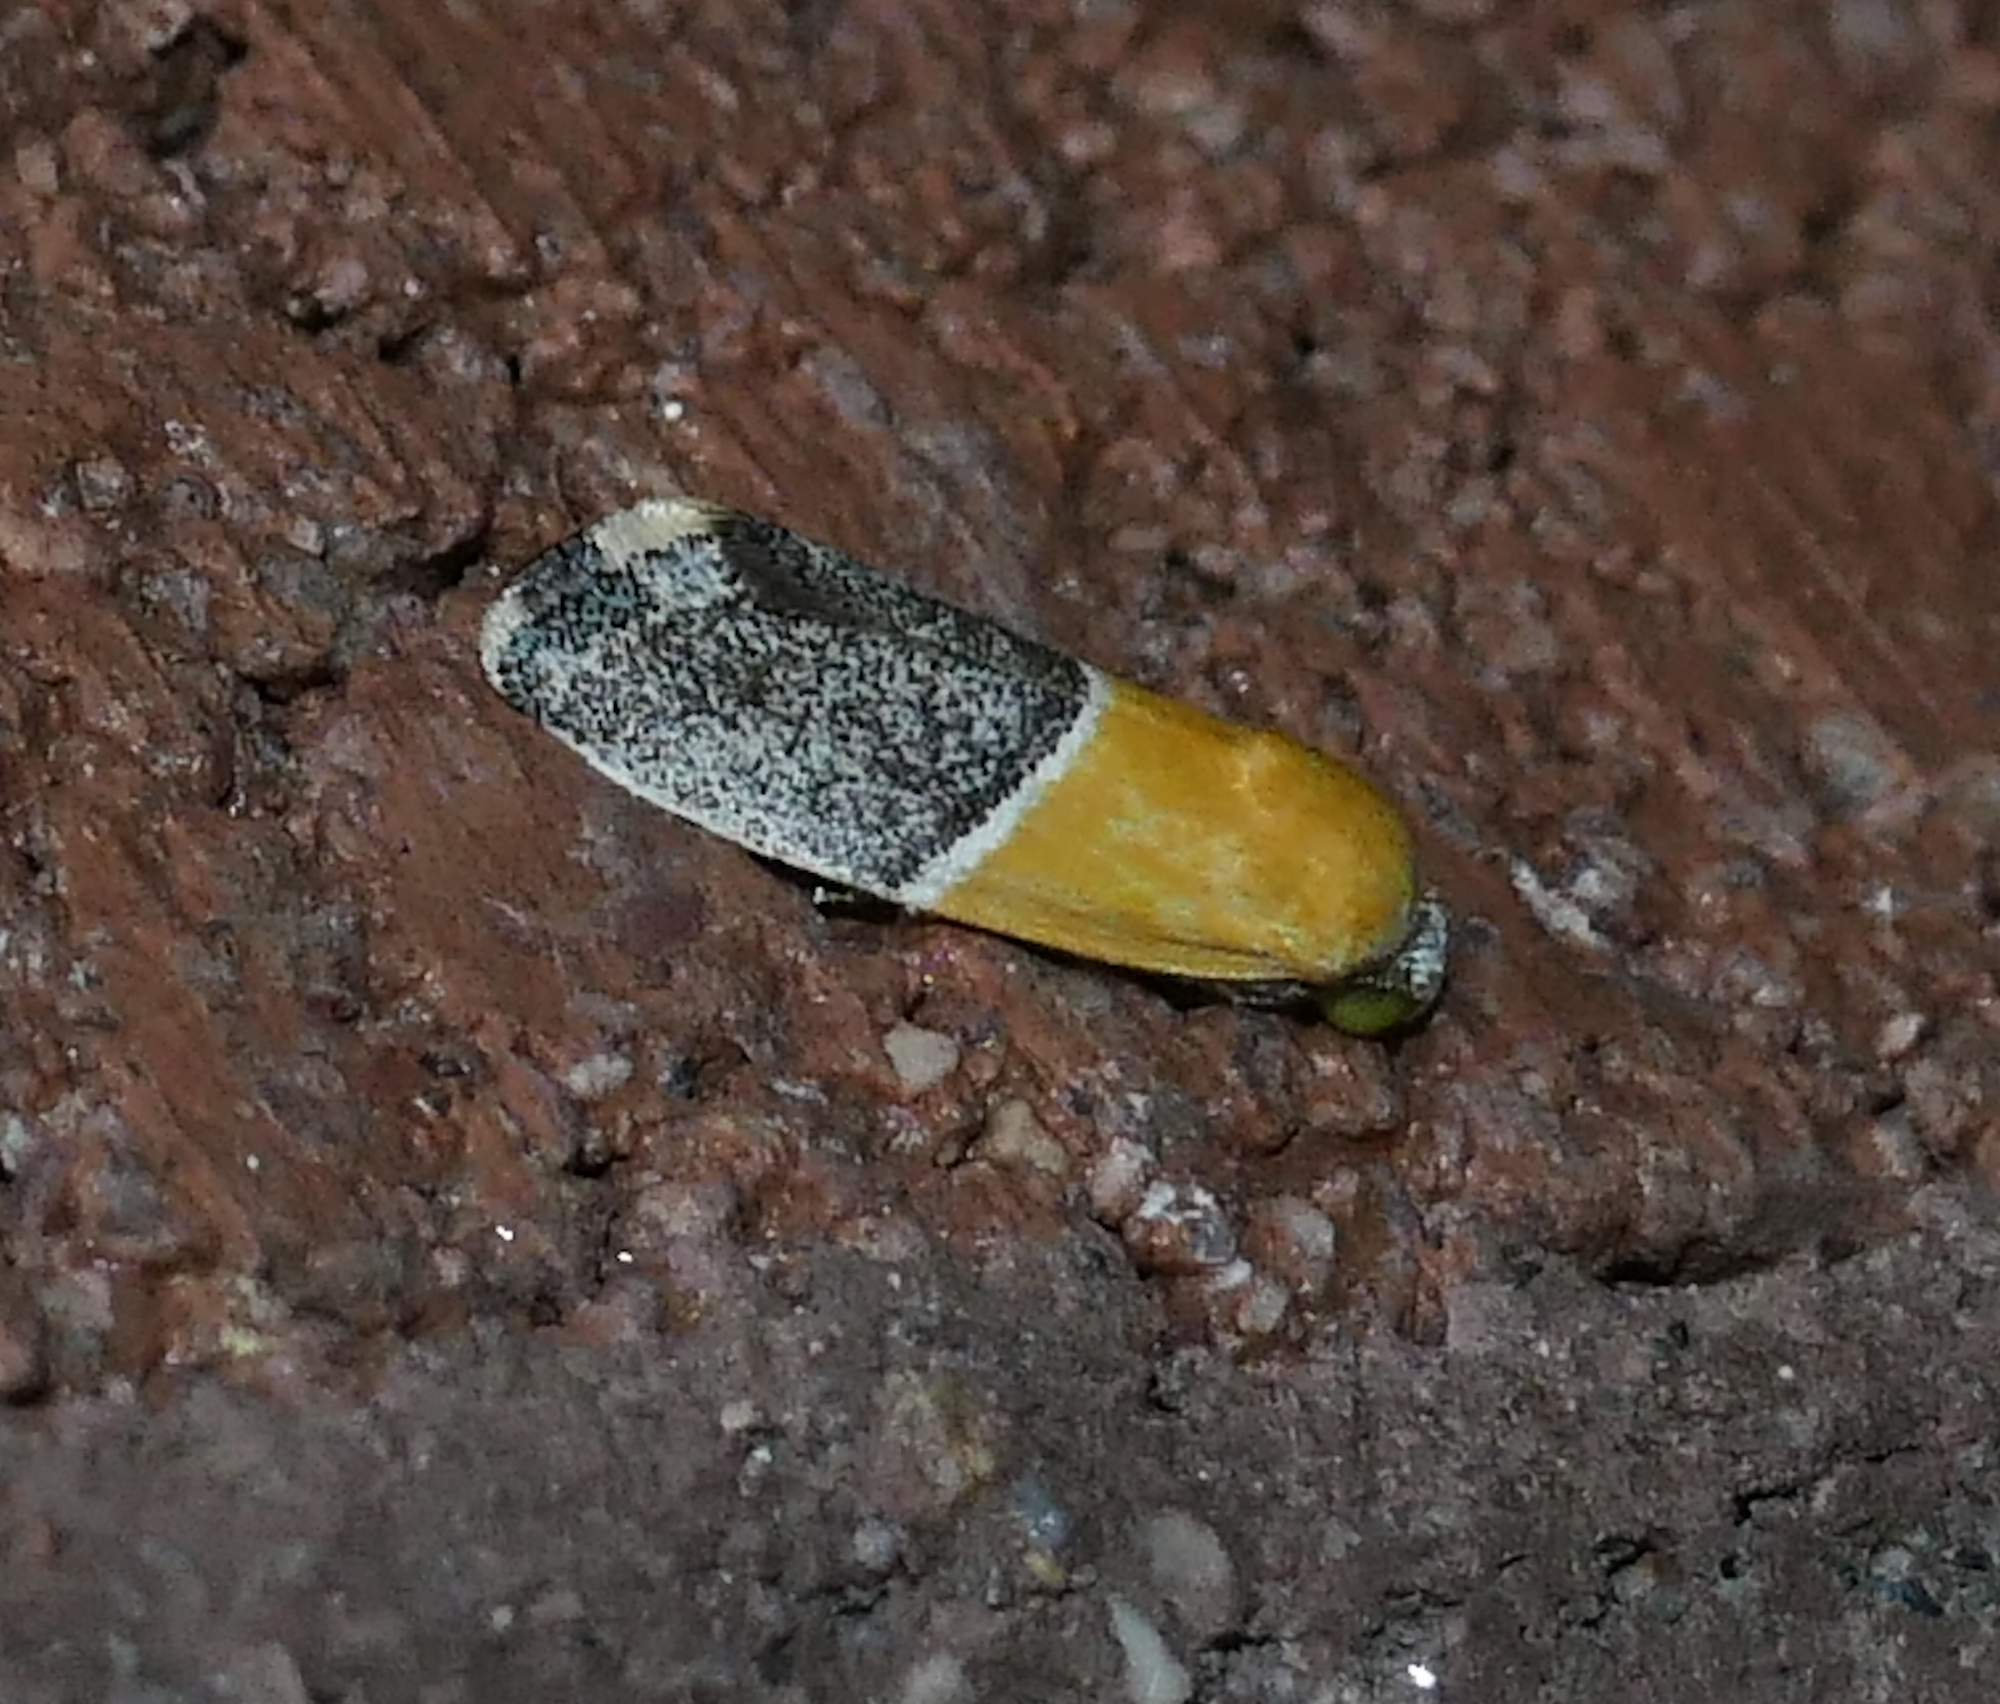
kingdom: Animalia
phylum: Arthropoda
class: Insecta
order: Lepidoptera
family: Noctuidae
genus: Acontia
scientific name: Acontia clausula
